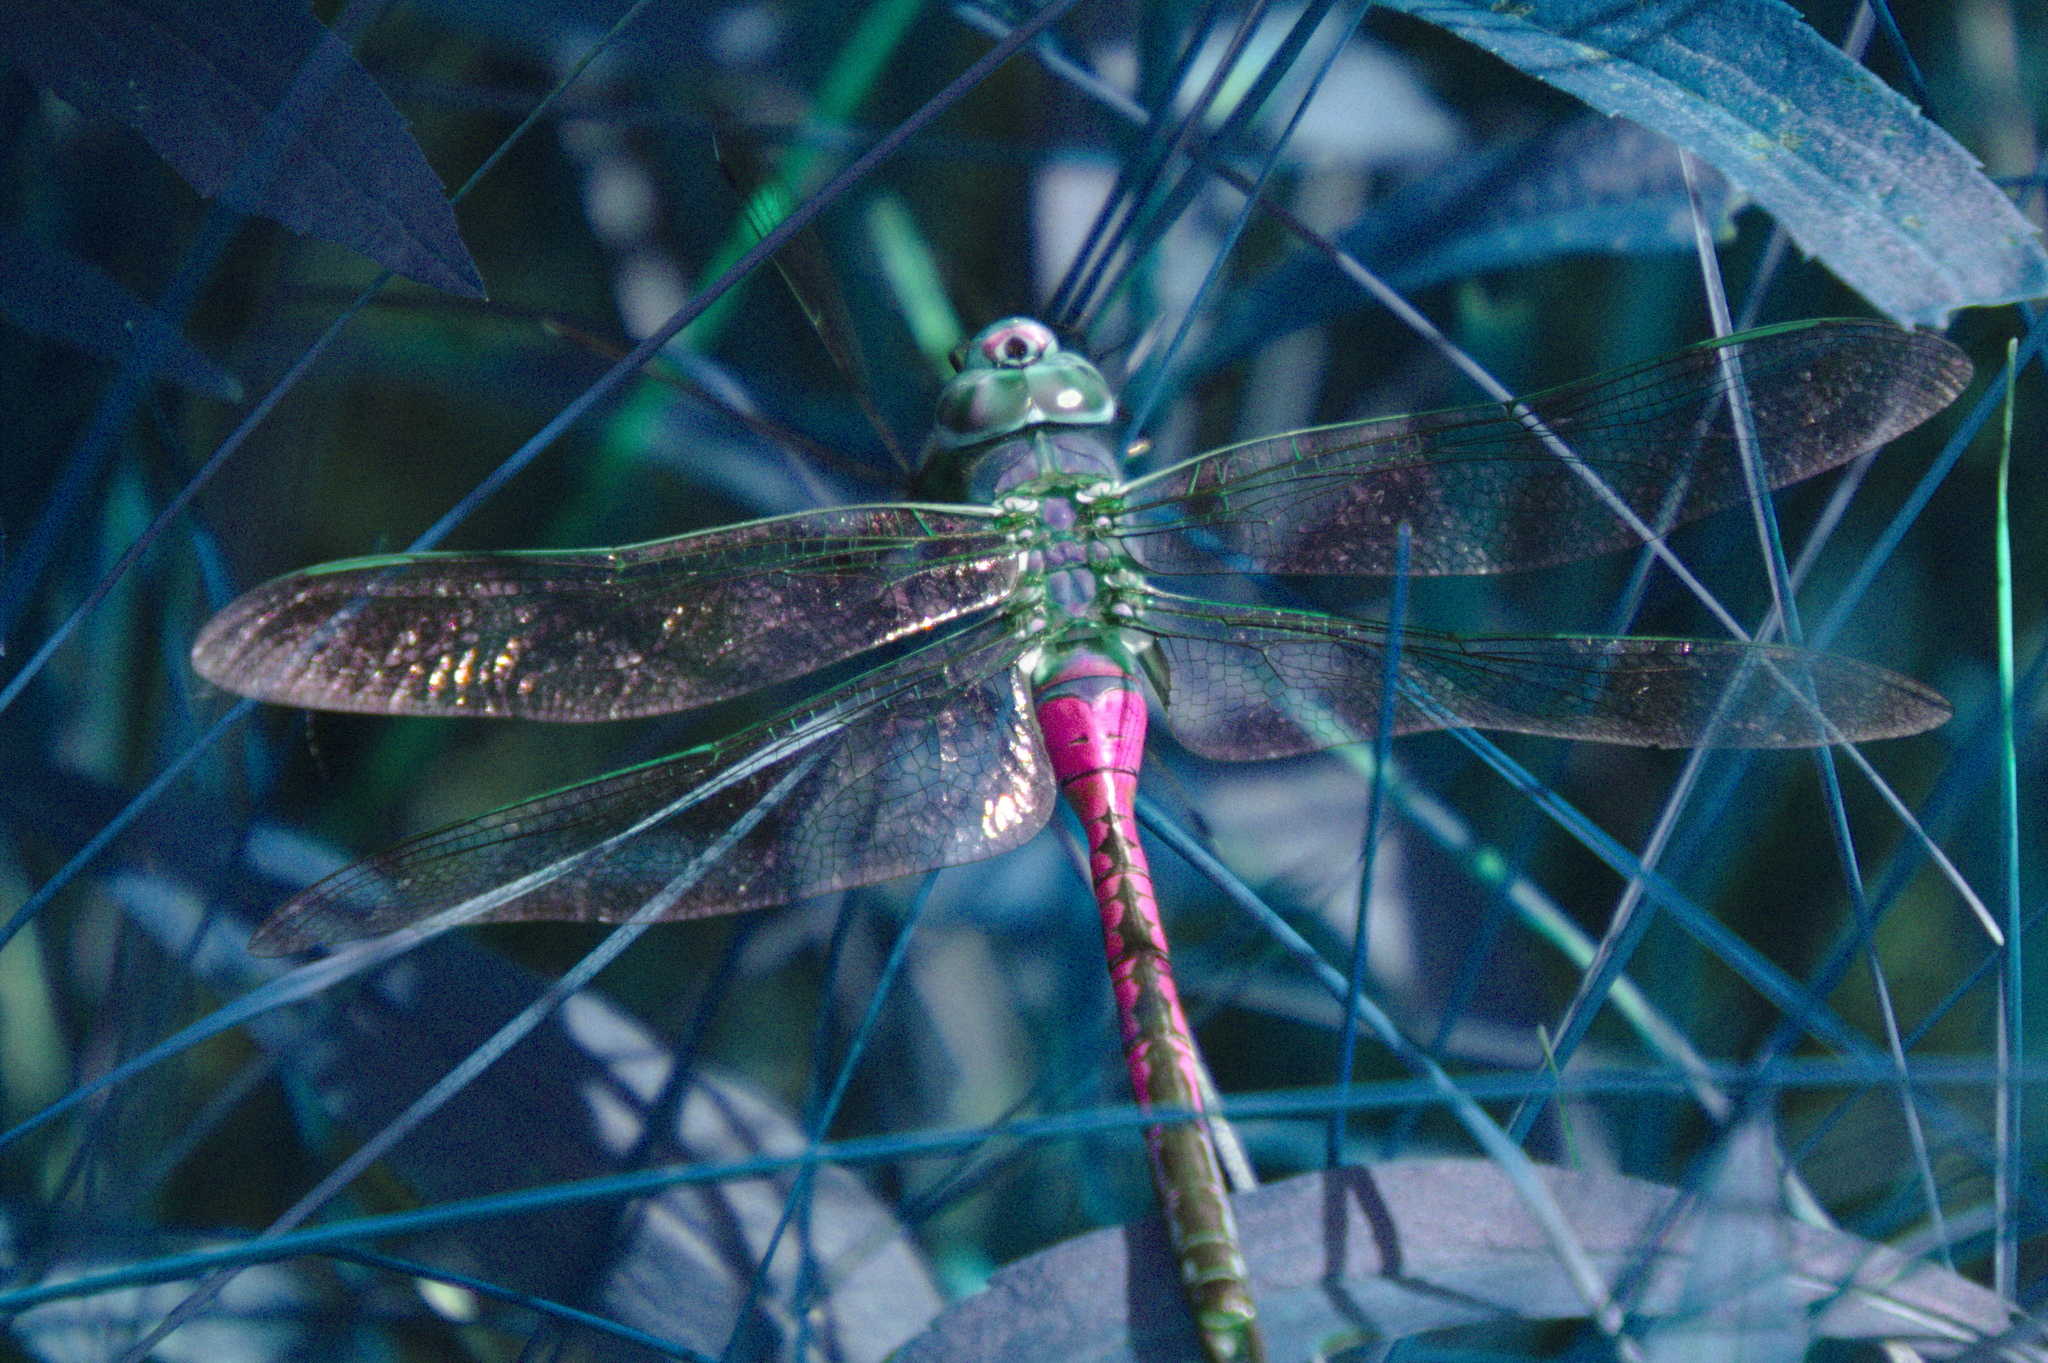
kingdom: Animalia
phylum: Arthropoda
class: Insecta
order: Odonata
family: Aeshnidae
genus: Anax
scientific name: Anax junius
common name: Common green darner
